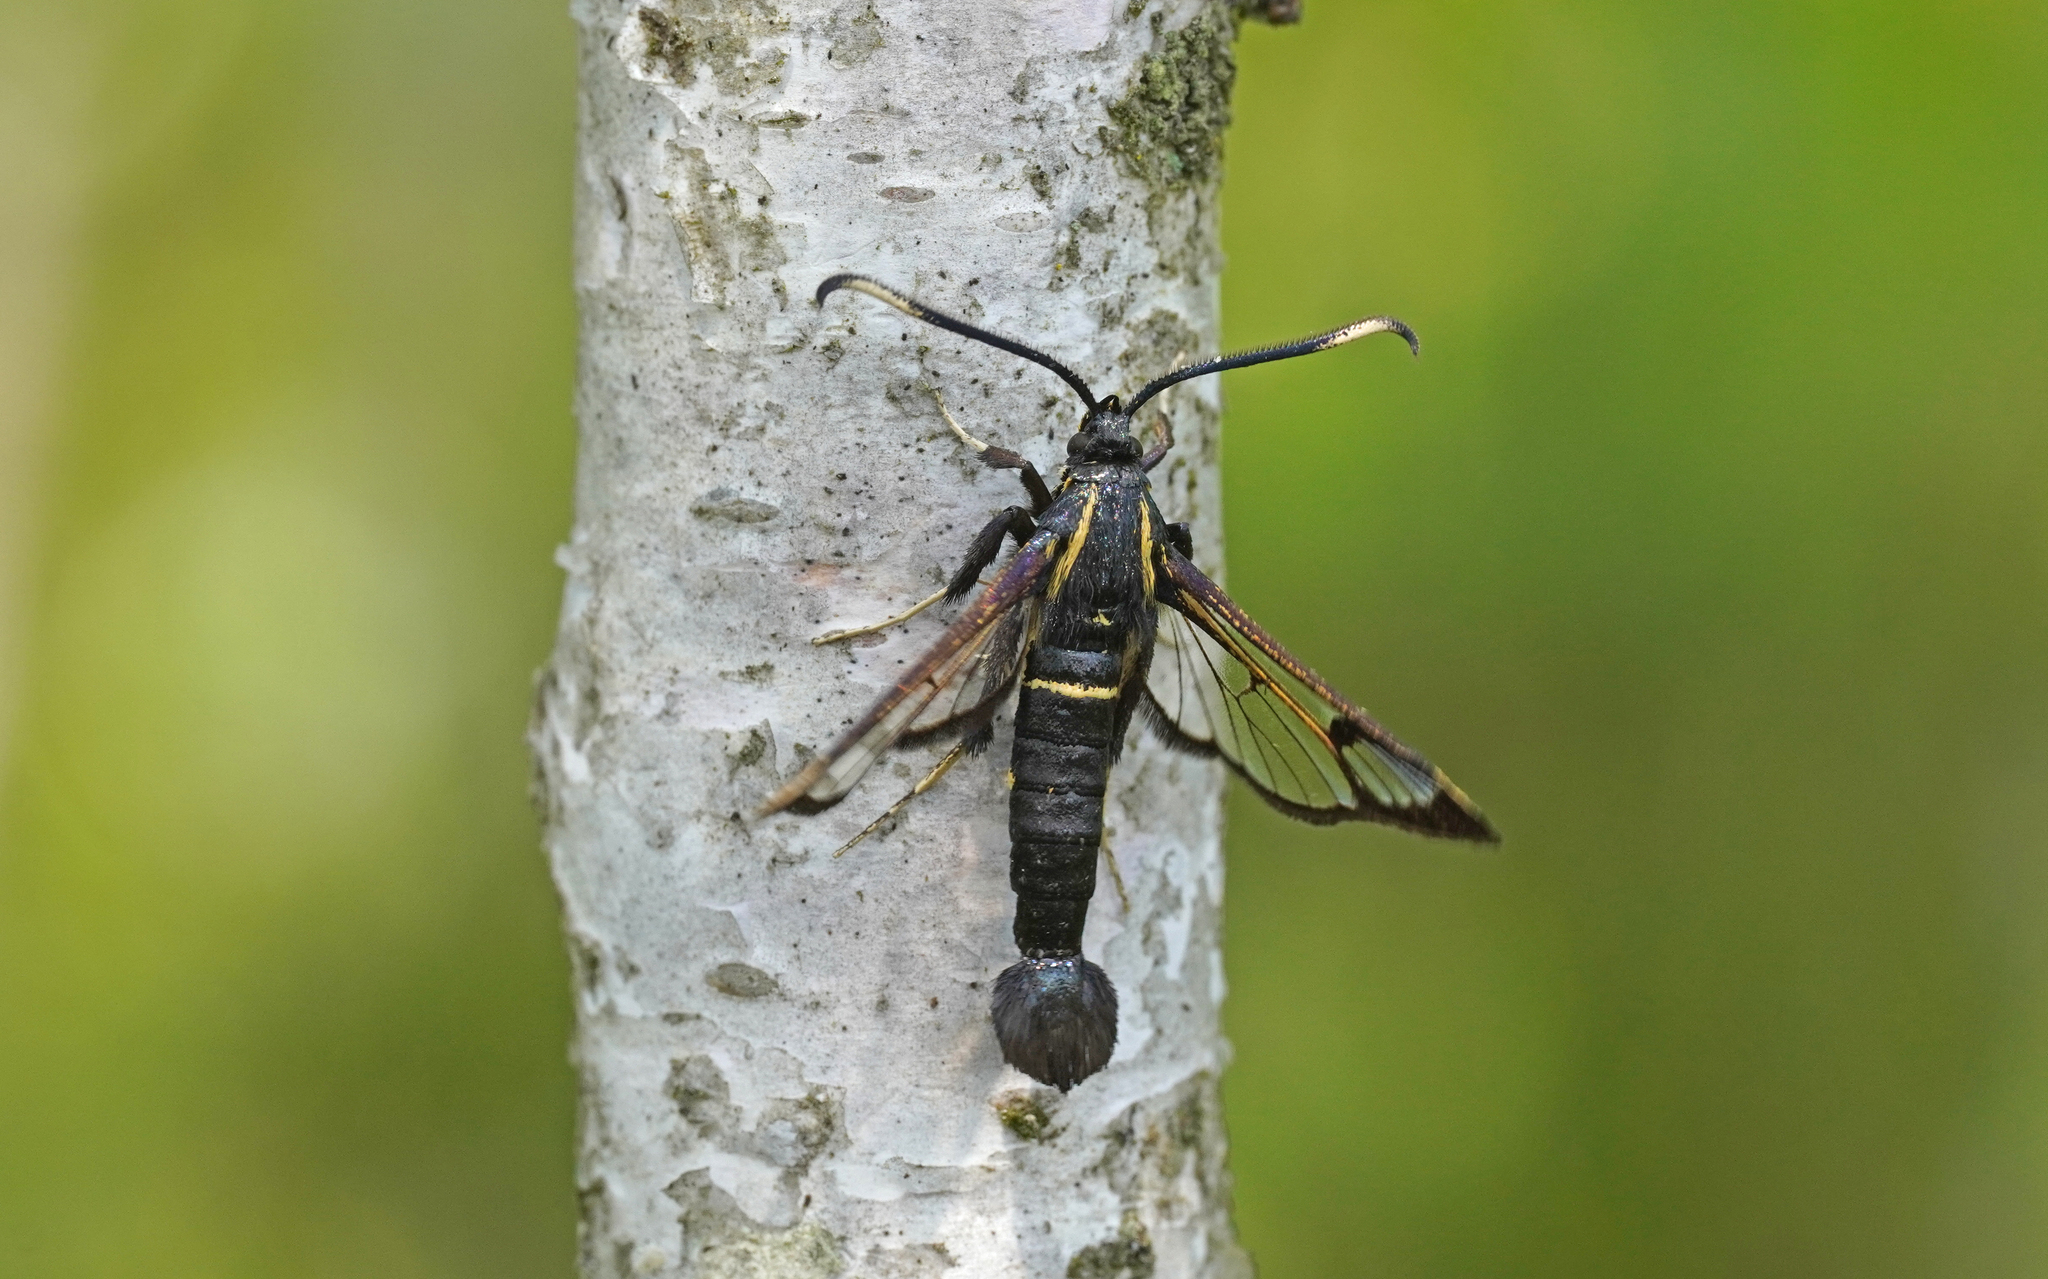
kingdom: Animalia
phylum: Arthropoda
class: Insecta
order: Lepidoptera
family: Sesiidae
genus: Synanthedon
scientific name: Synanthedon spheciformis
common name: White-barred clearwing
